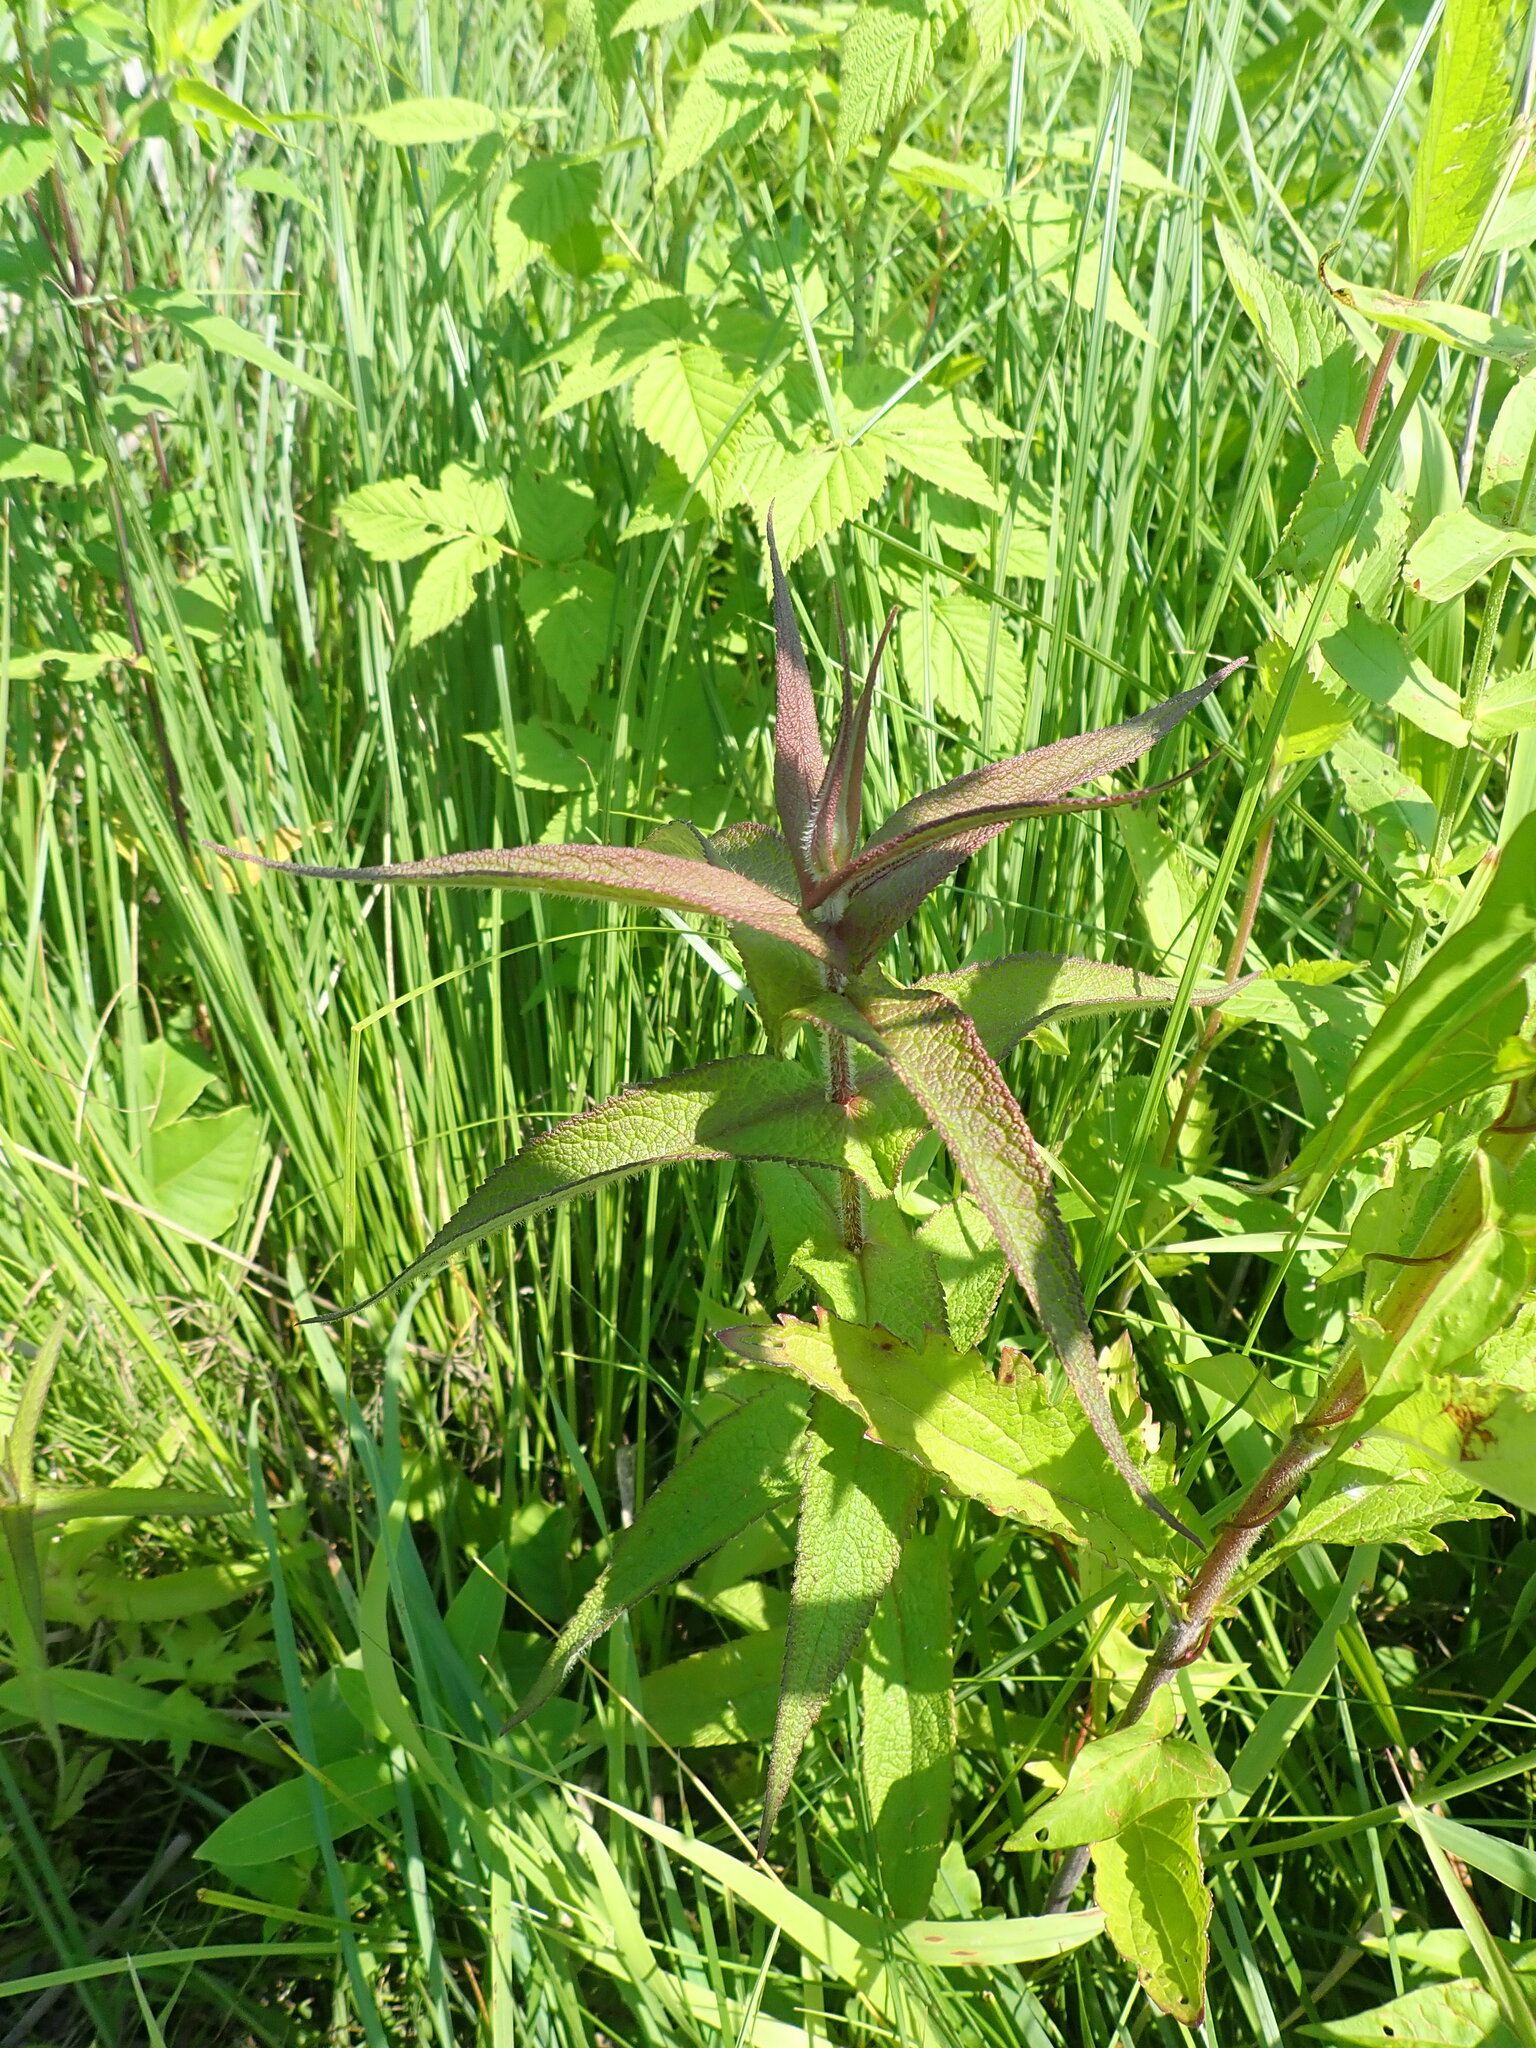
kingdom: Plantae
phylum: Tracheophyta
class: Magnoliopsida
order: Asterales
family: Asteraceae
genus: Eupatorium
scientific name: Eupatorium perfoliatum
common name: Boneset
